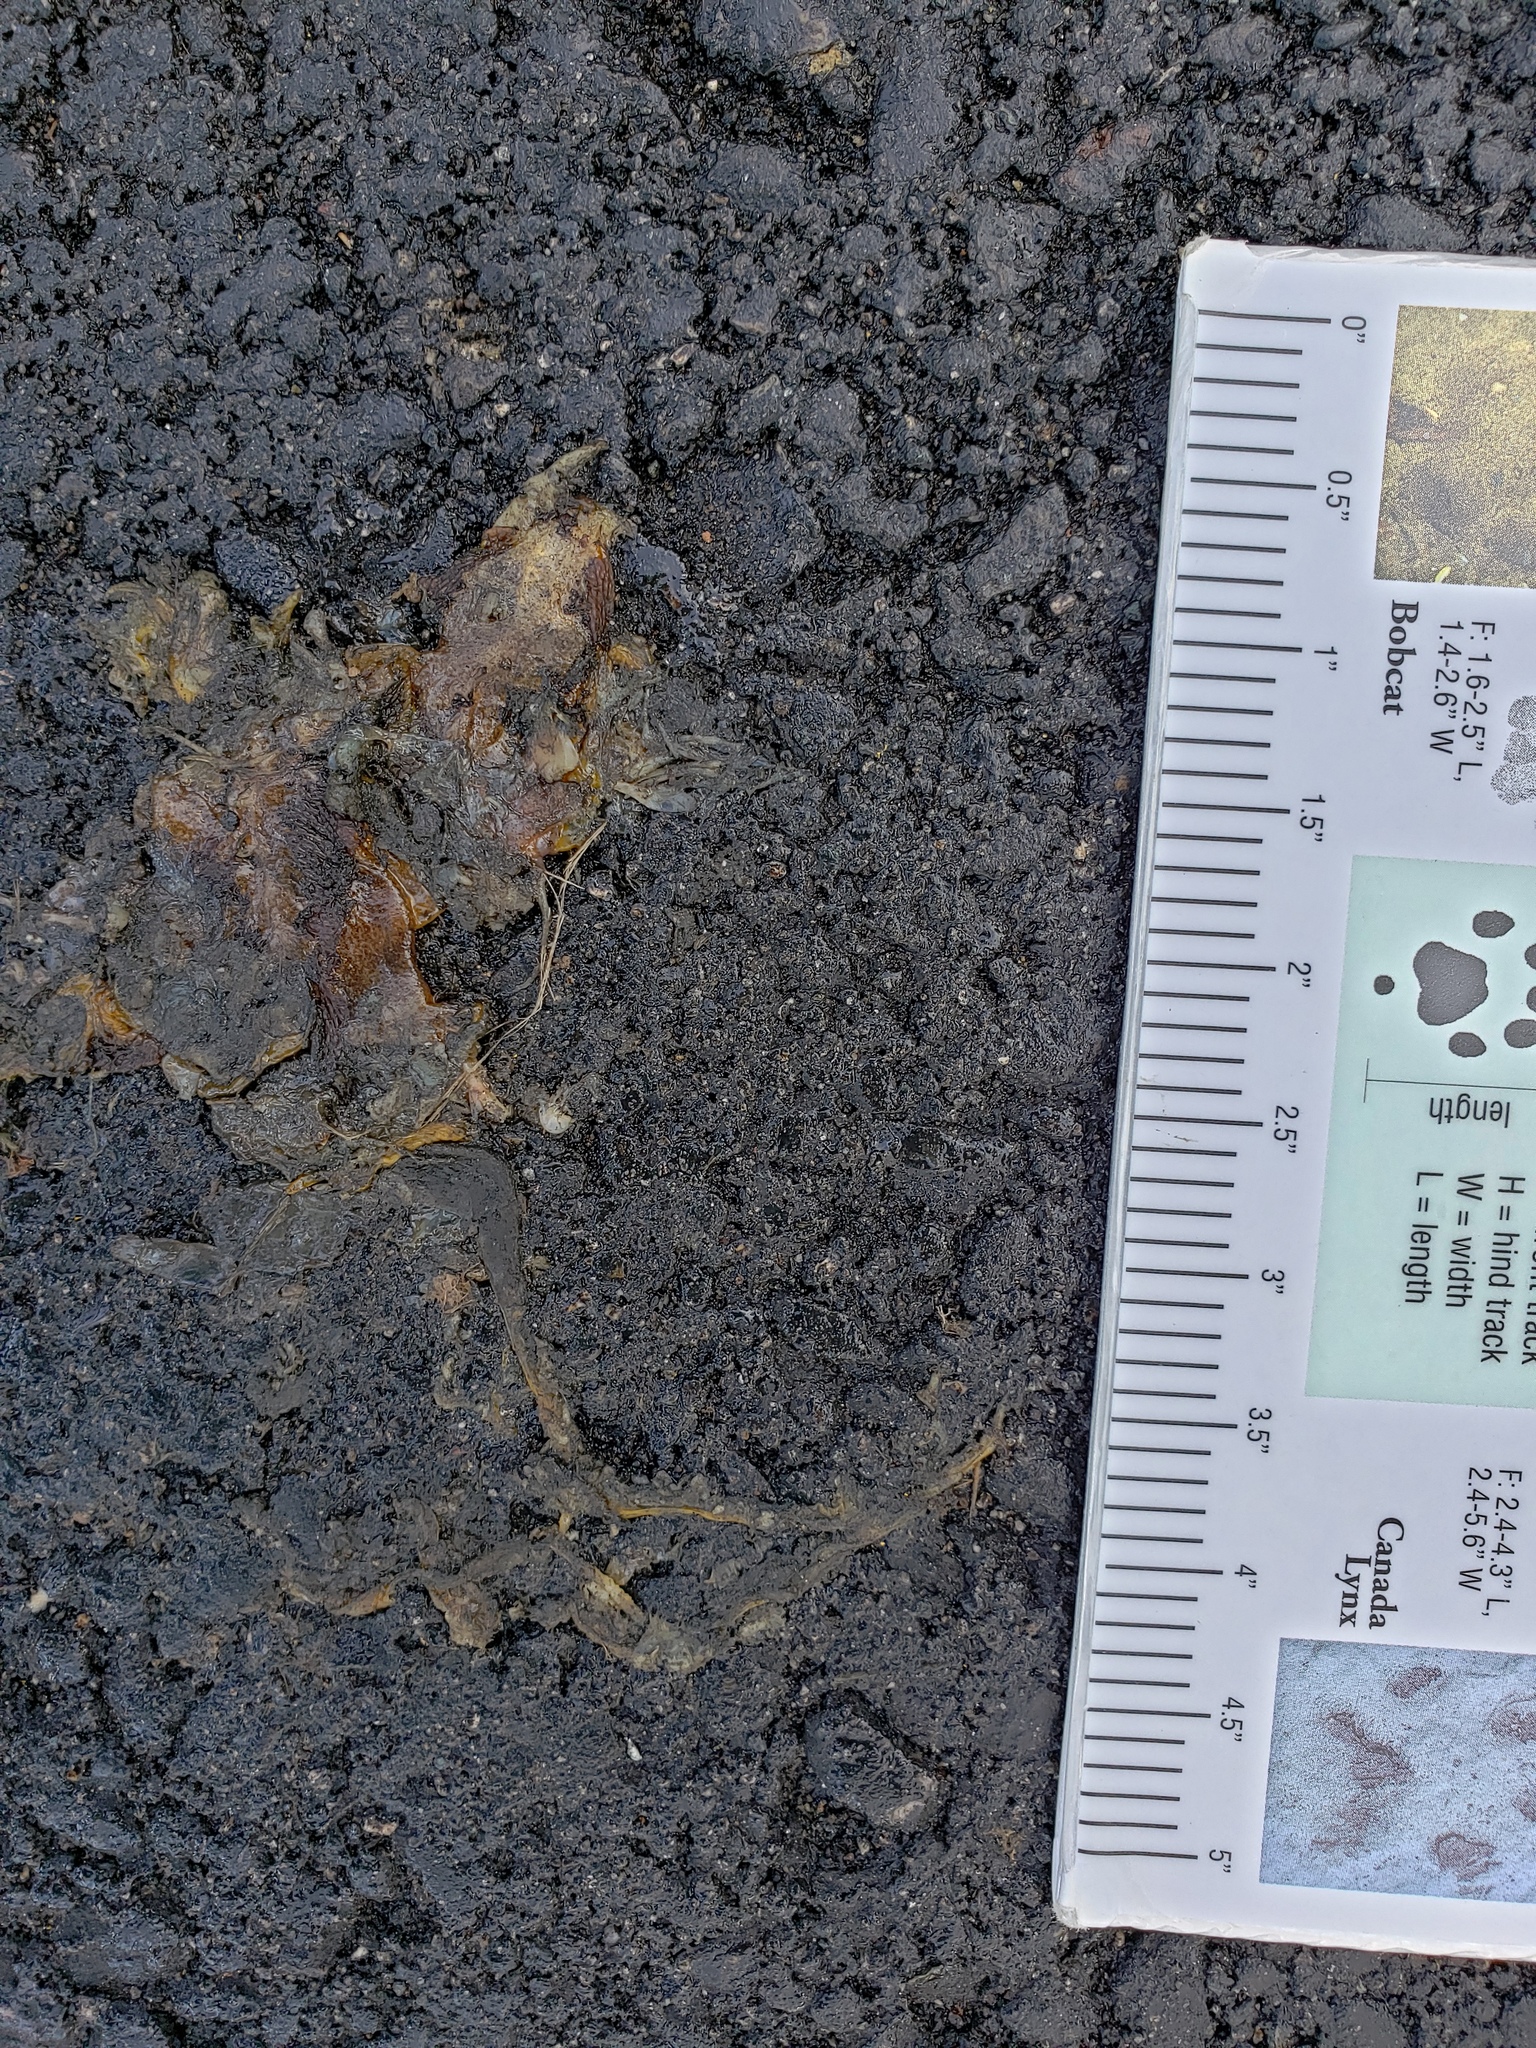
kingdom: Animalia
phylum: Chordata
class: Amphibia
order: Caudata
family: Salamandridae
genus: Taricha
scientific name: Taricha
